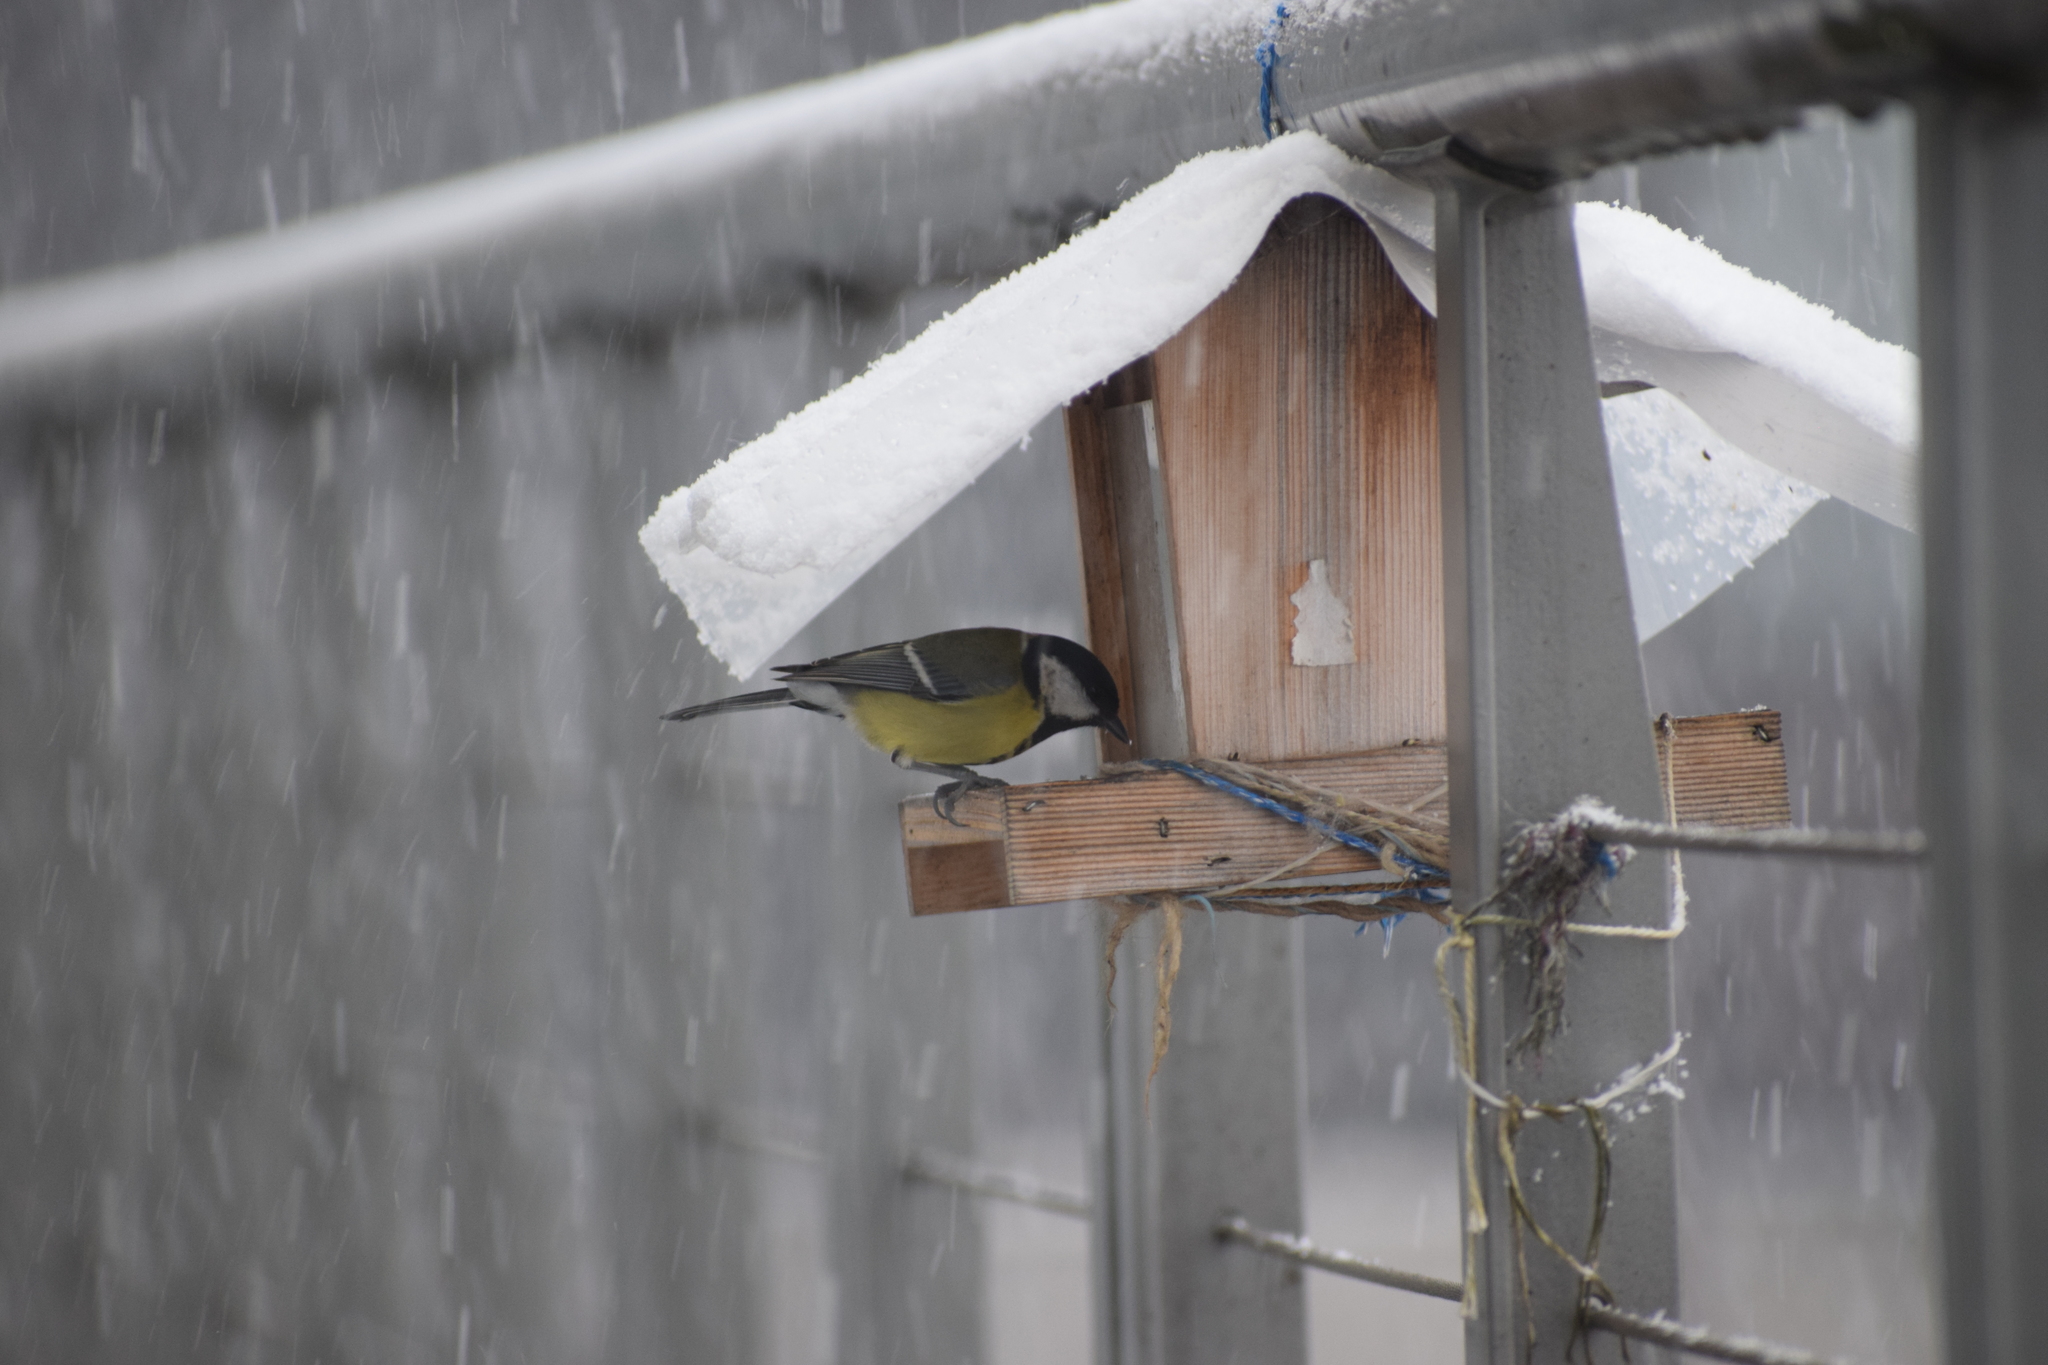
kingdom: Animalia
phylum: Chordata
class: Aves
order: Passeriformes
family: Paridae
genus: Parus
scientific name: Parus major
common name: Great tit
